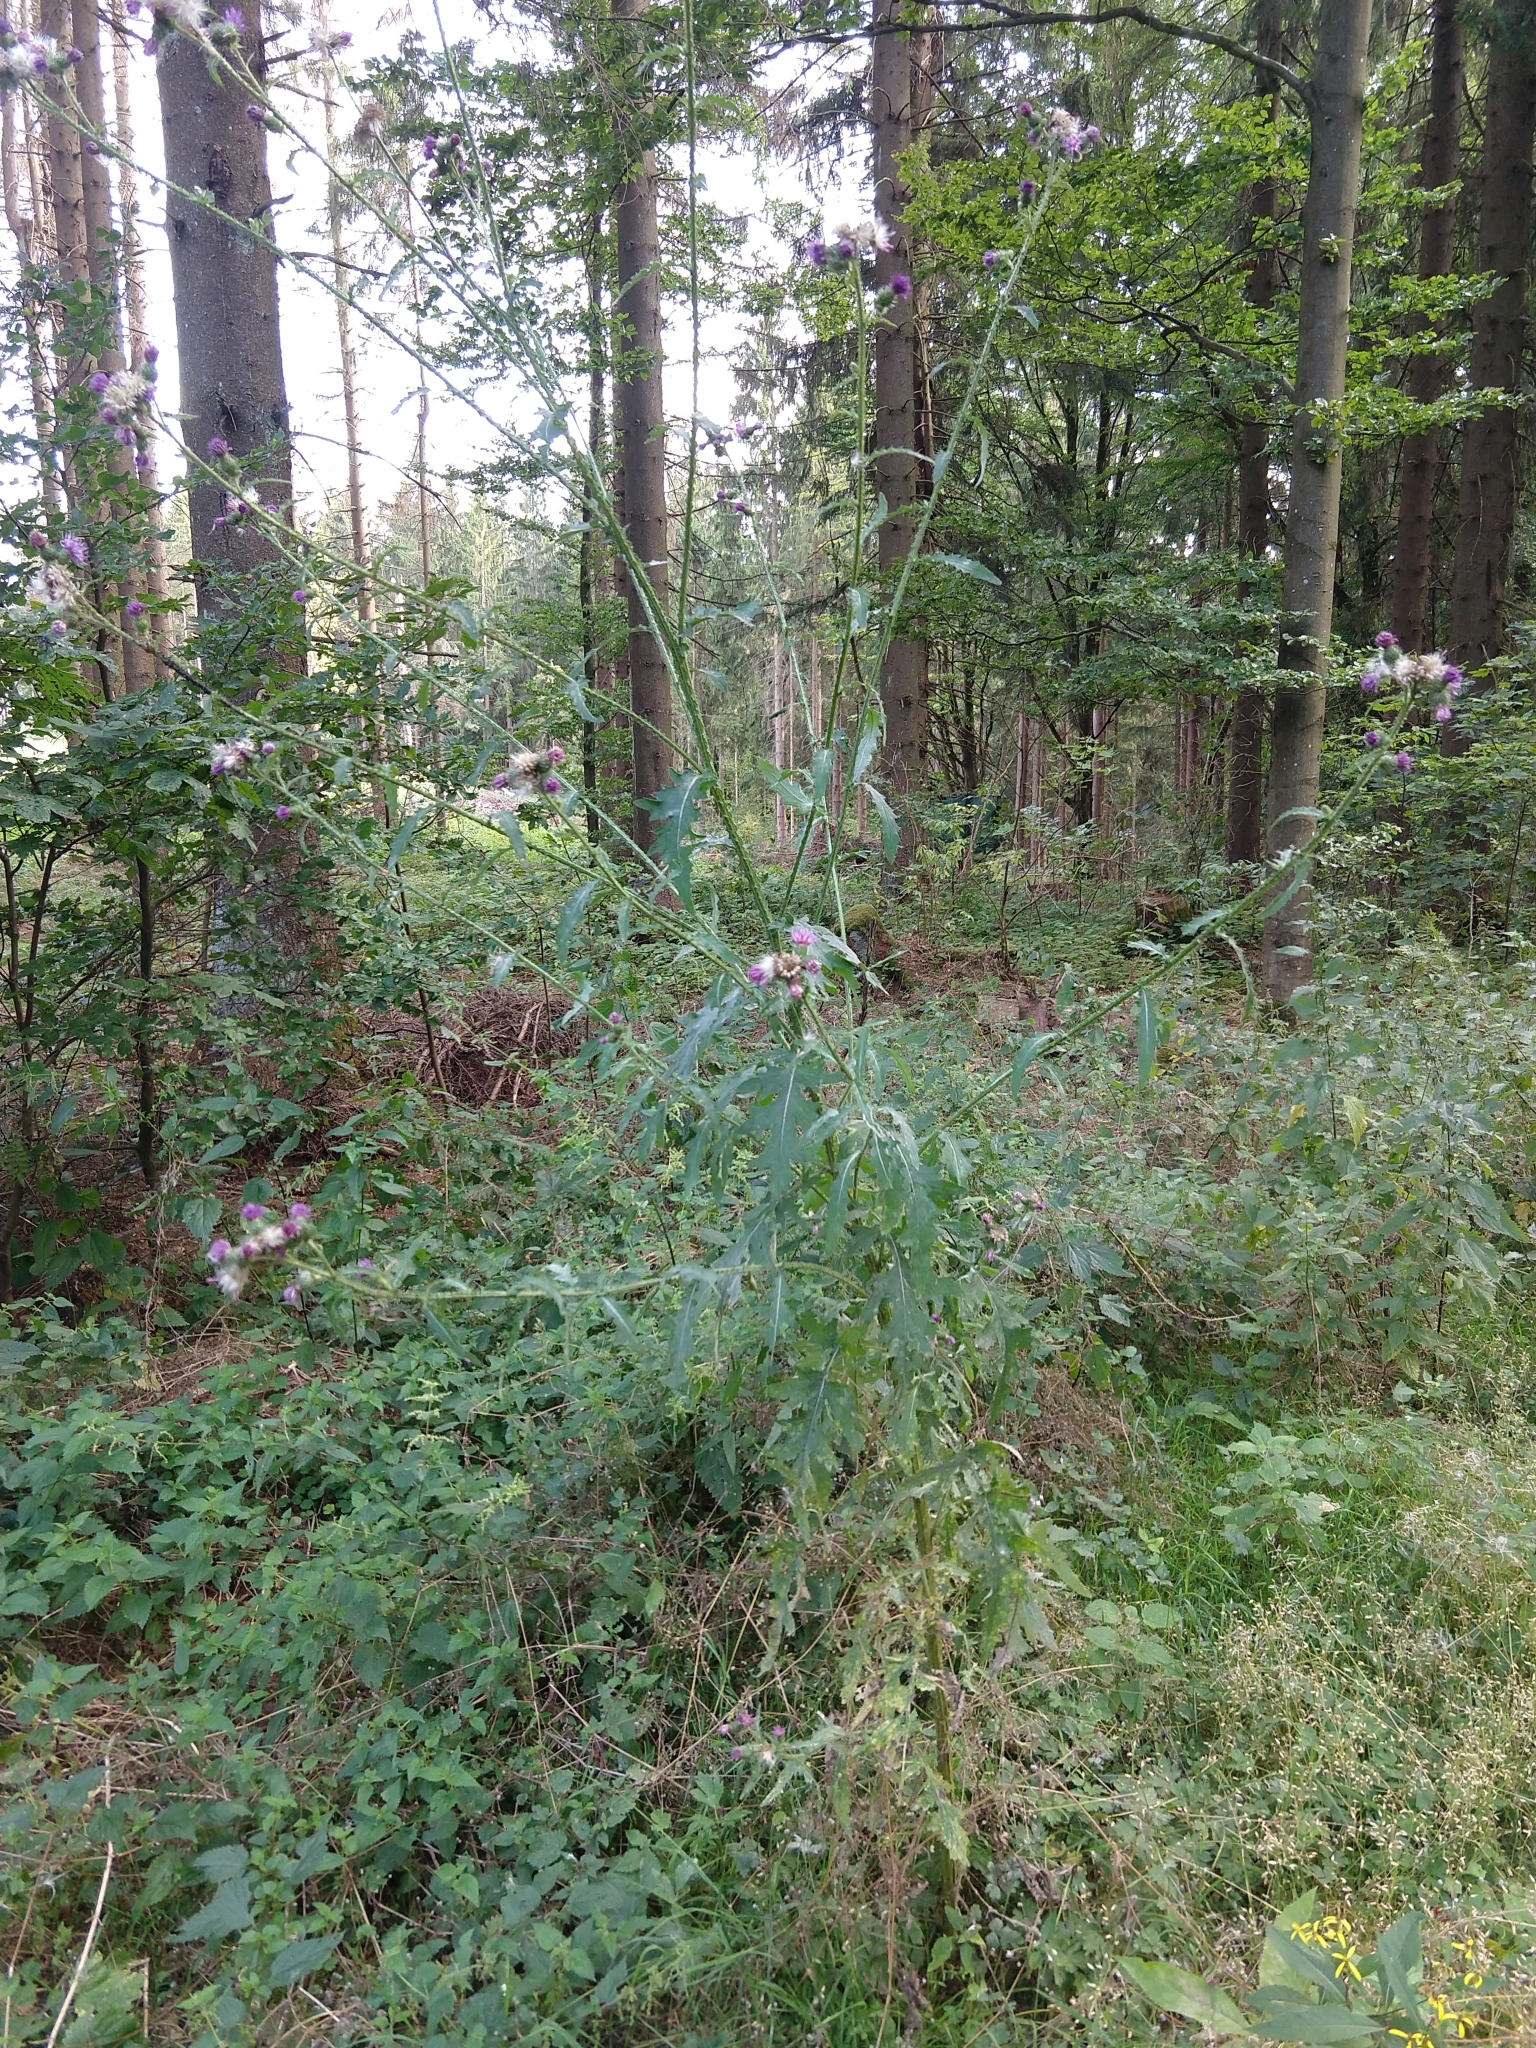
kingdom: Plantae
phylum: Tracheophyta
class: Magnoliopsida
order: Asterales
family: Asteraceae
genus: Carduus
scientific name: Carduus crispus
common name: Welted thistle
